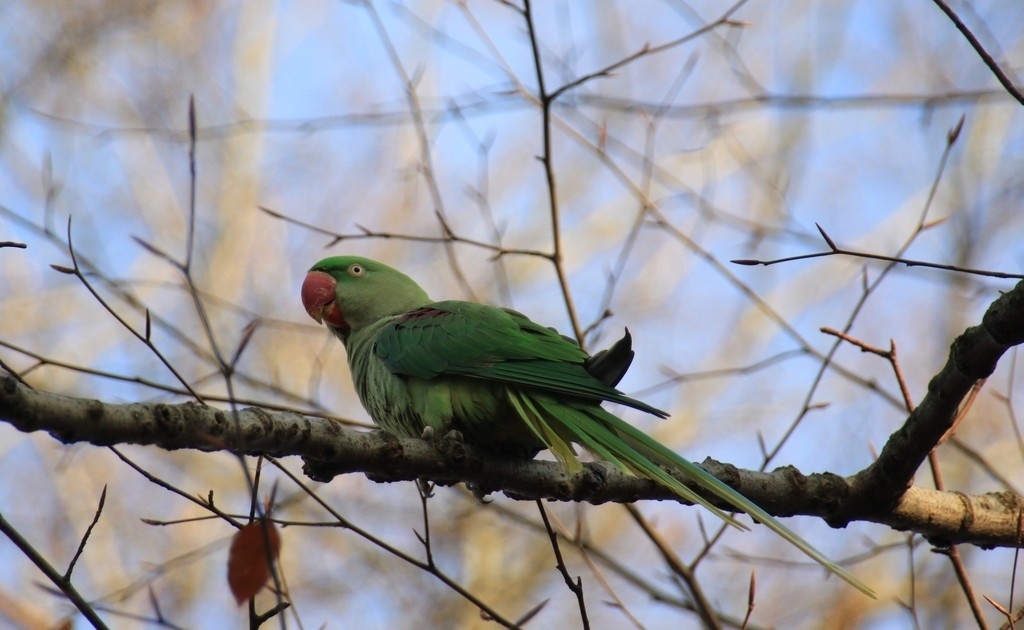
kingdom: Animalia
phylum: Chordata
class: Aves
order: Psittaciformes
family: Psittacidae
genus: Psittacula
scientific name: Psittacula eupatria
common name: Alexandrine parakeet
